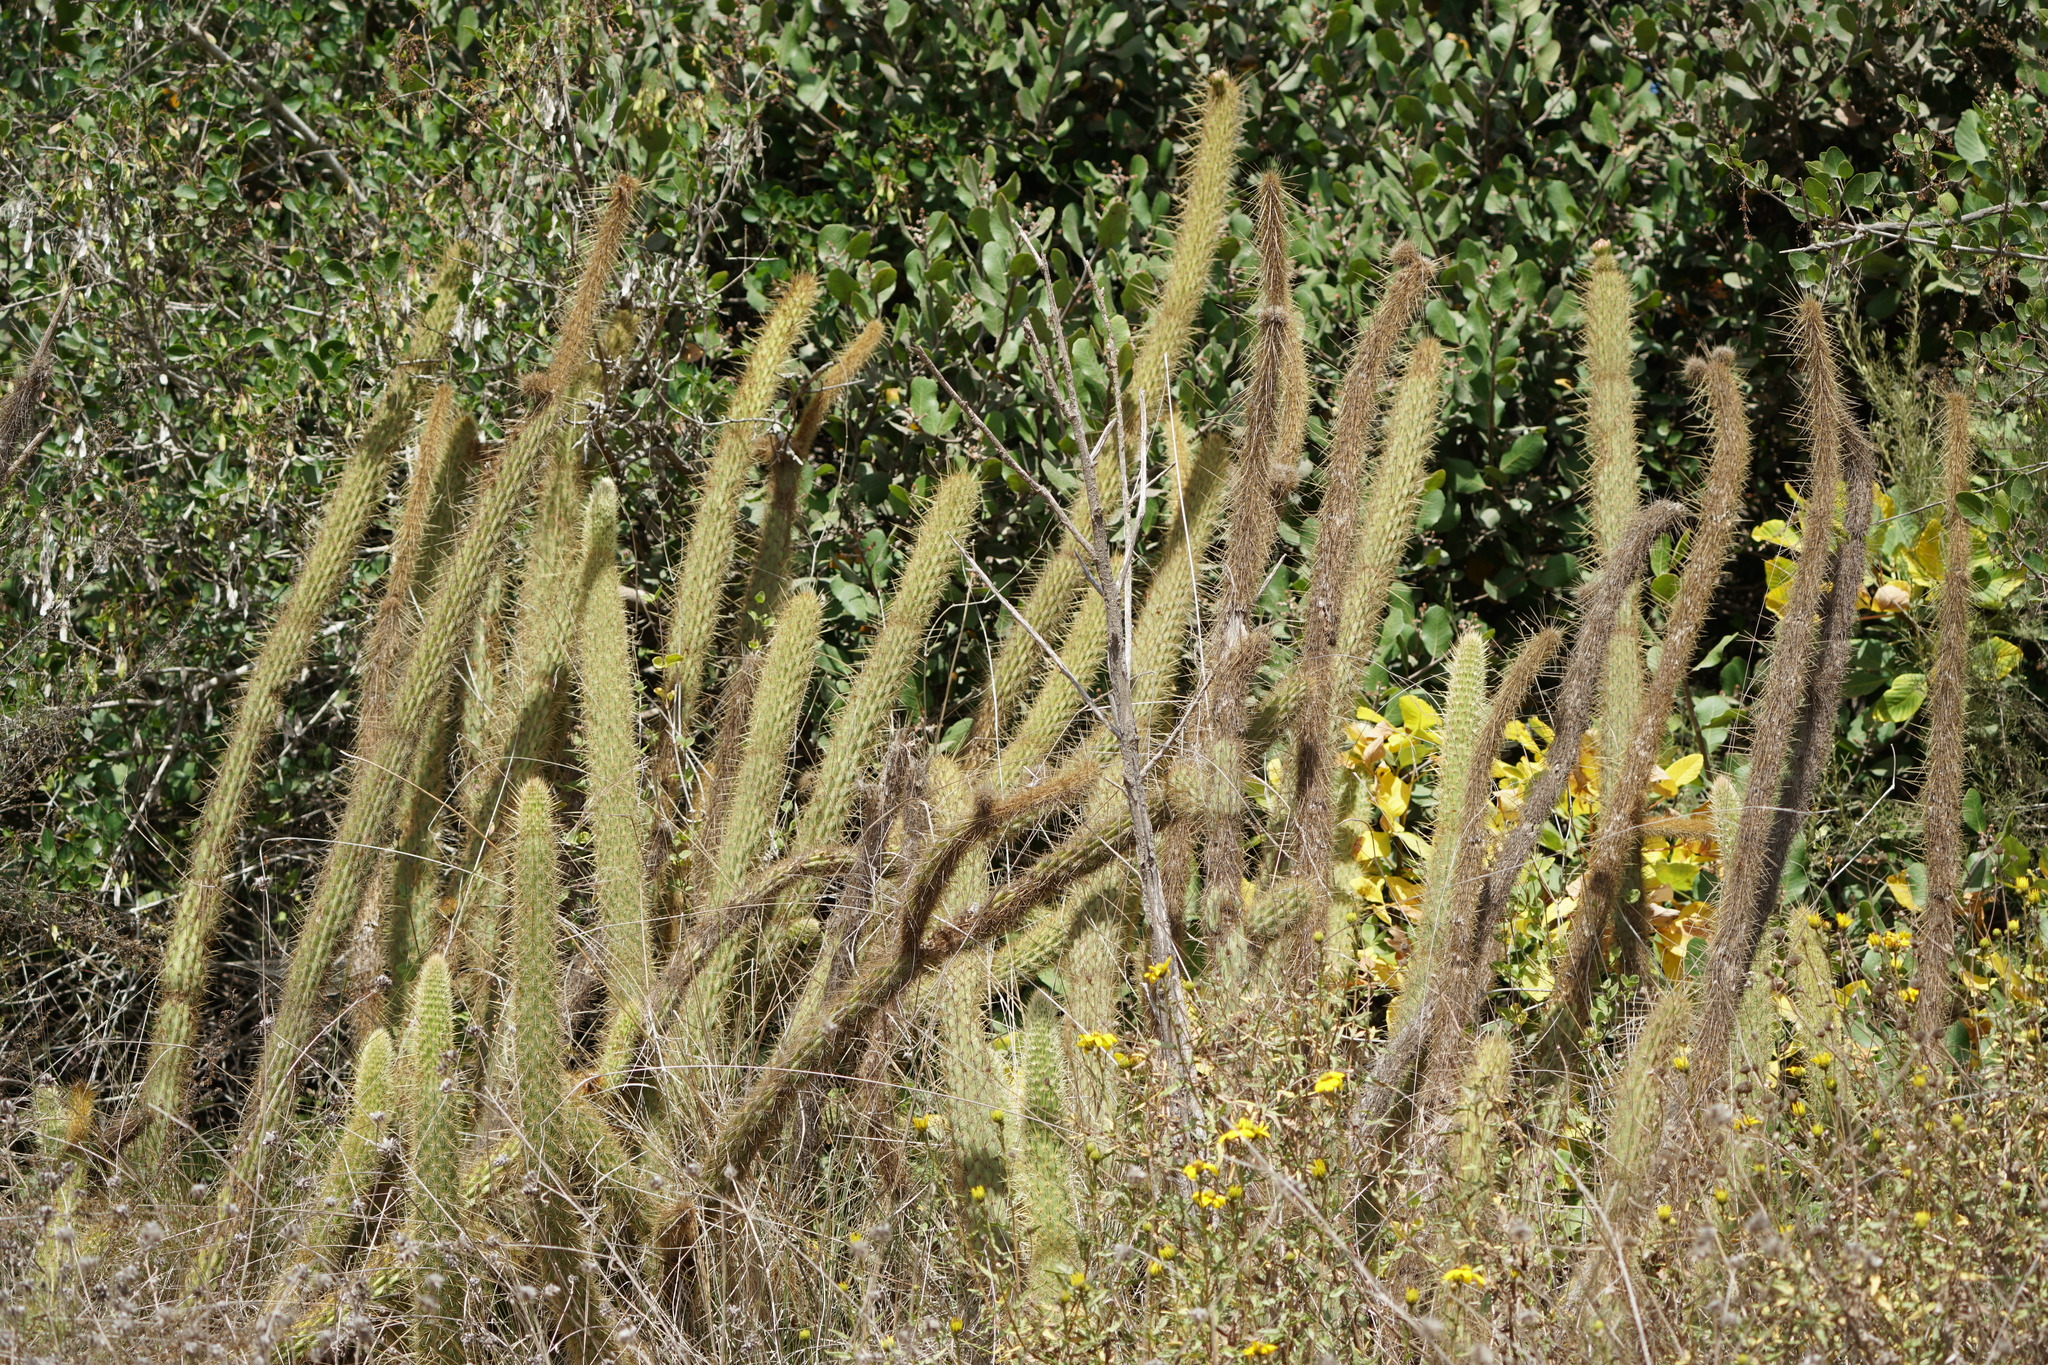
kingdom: Plantae
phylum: Tracheophyta
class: Magnoliopsida
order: Caryophyllales
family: Cactaceae
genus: Bergerocactus
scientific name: Bergerocactus emoryi
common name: Golden snakecactus
